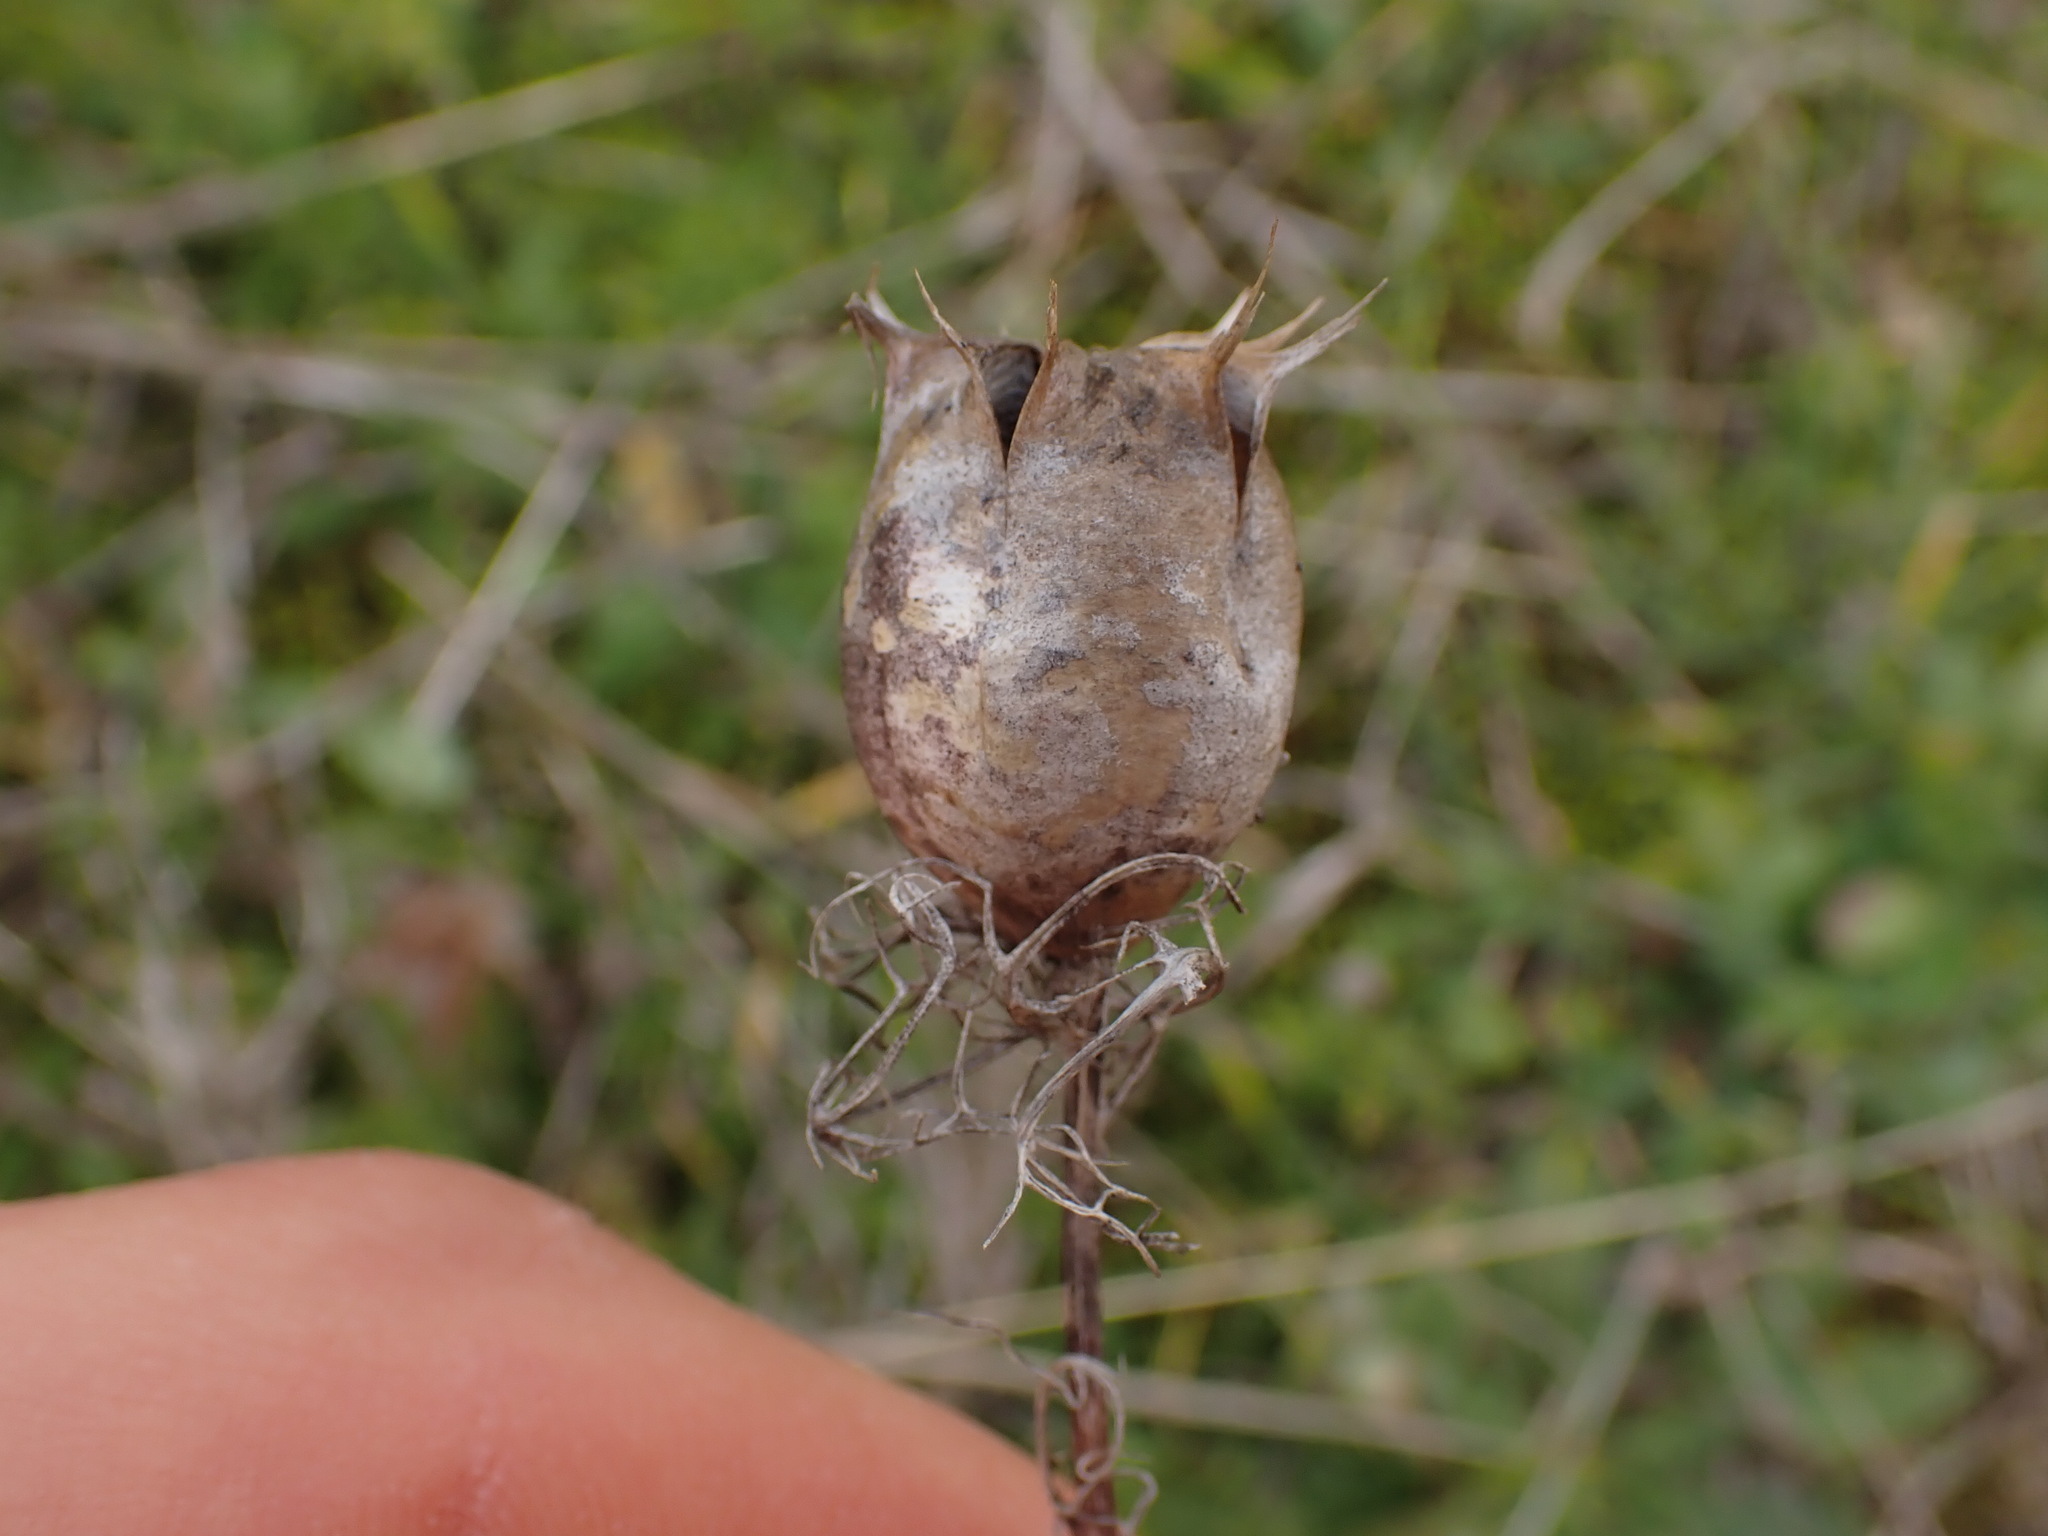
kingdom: Plantae
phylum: Tracheophyta
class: Magnoliopsida
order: Ranunculales
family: Ranunculaceae
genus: Nigella
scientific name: Nigella damascena
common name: Love-in-a-mist
